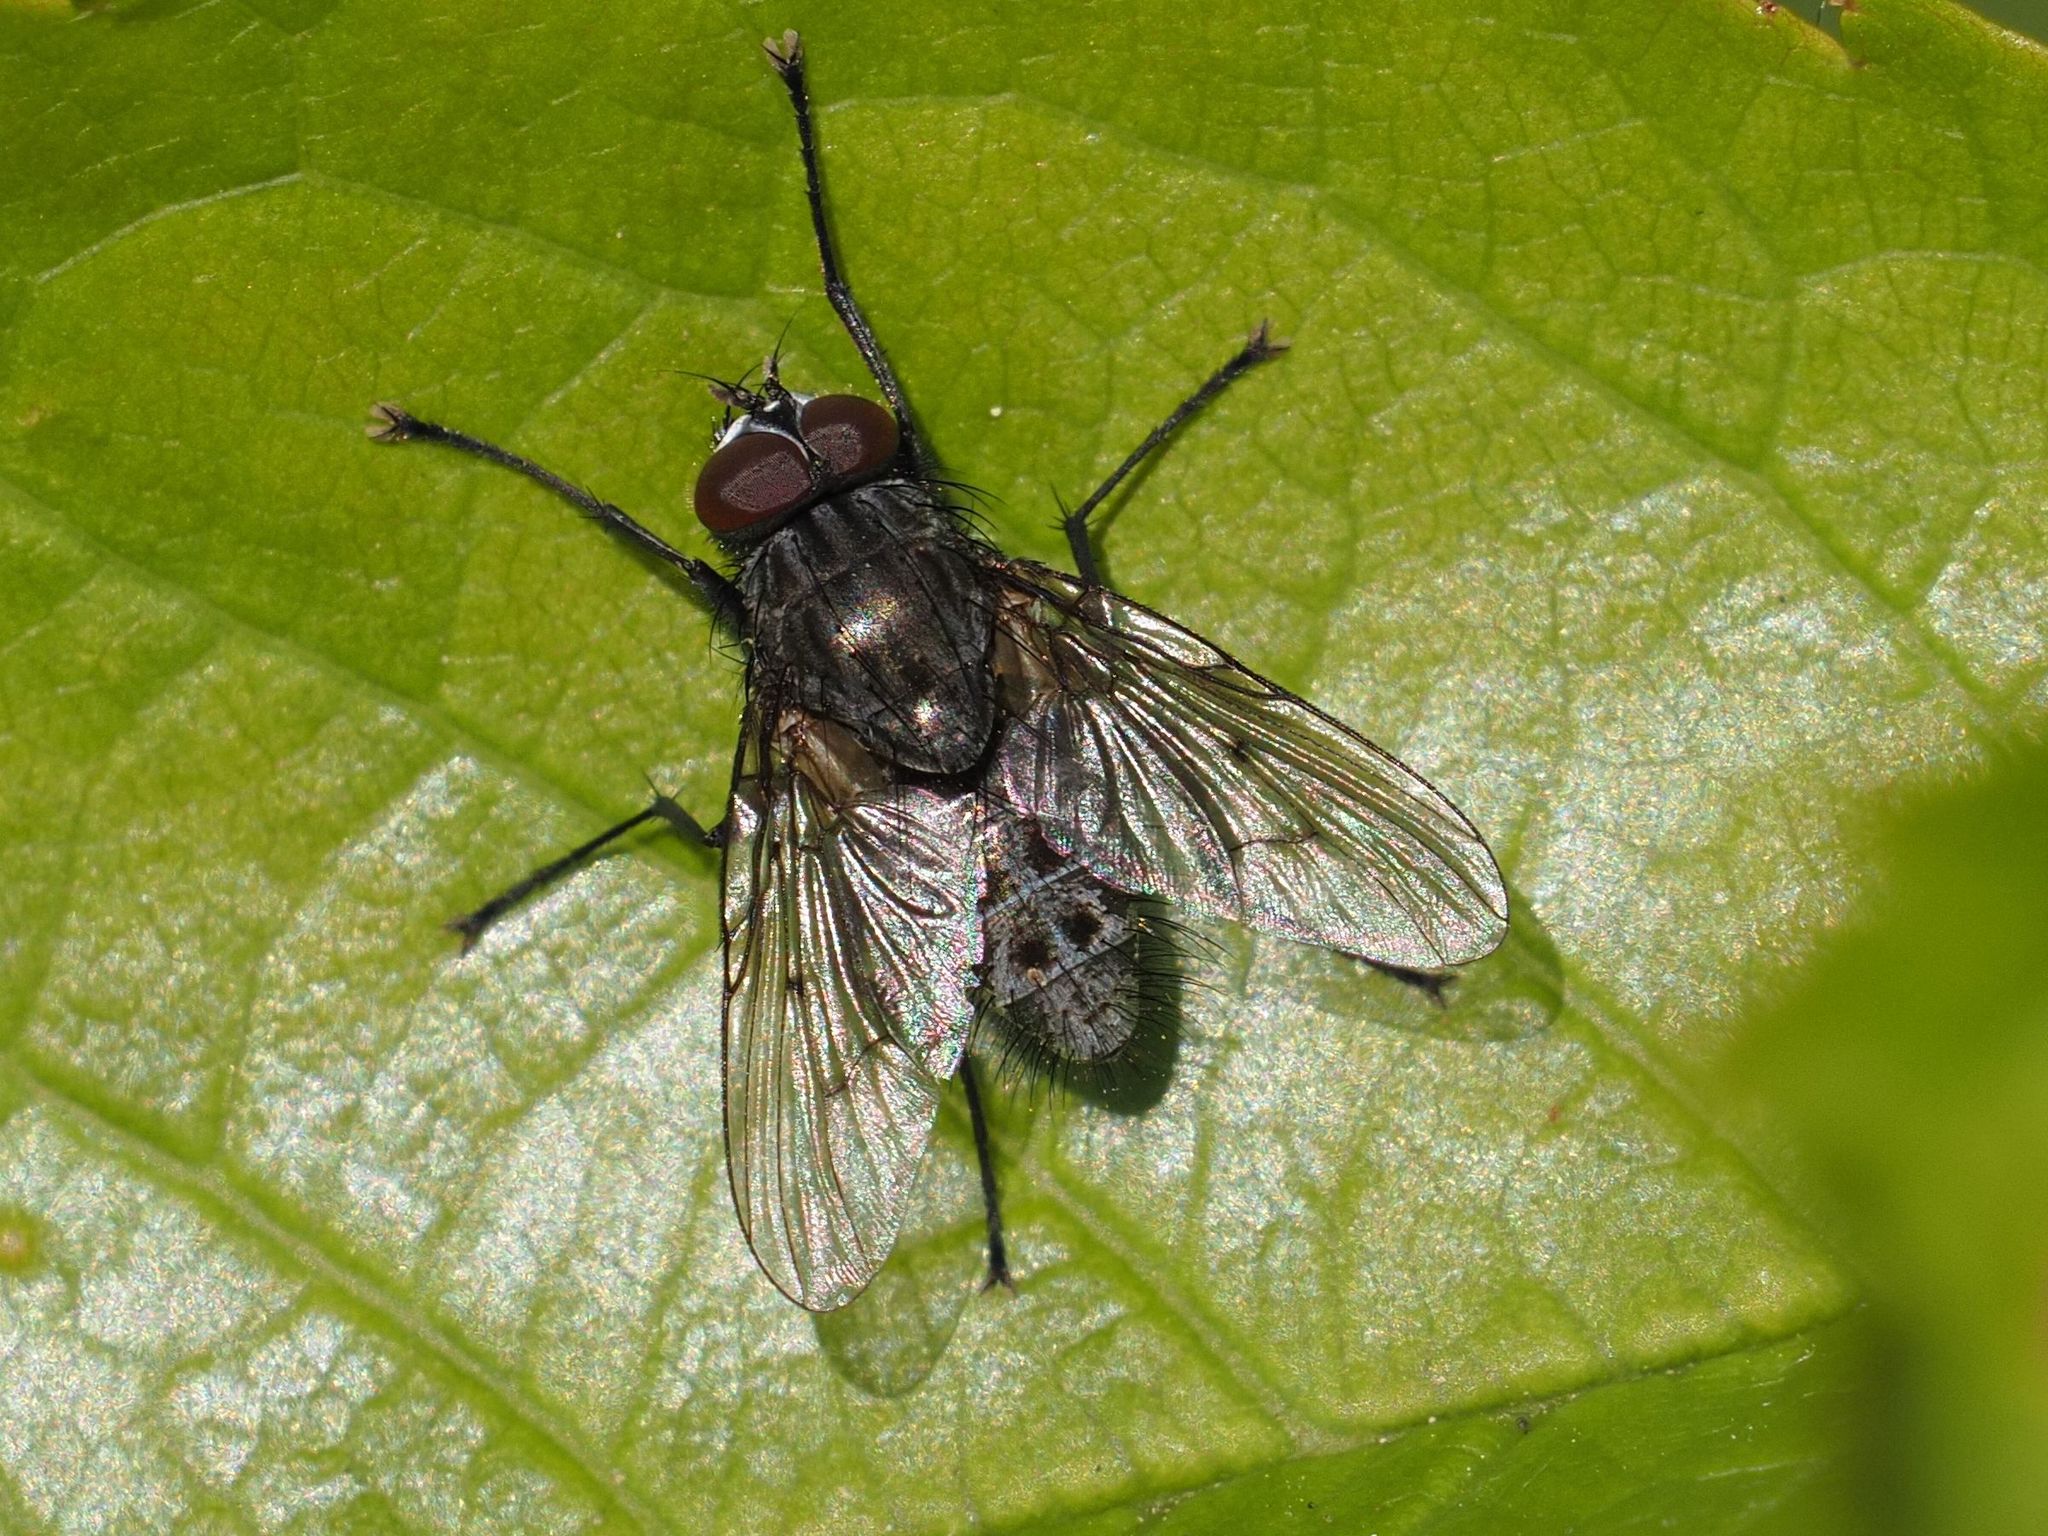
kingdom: Animalia
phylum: Arthropoda
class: Insecta
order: Diptera
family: Muscidae
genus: Helina
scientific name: Helina evecta
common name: Muscid fly
